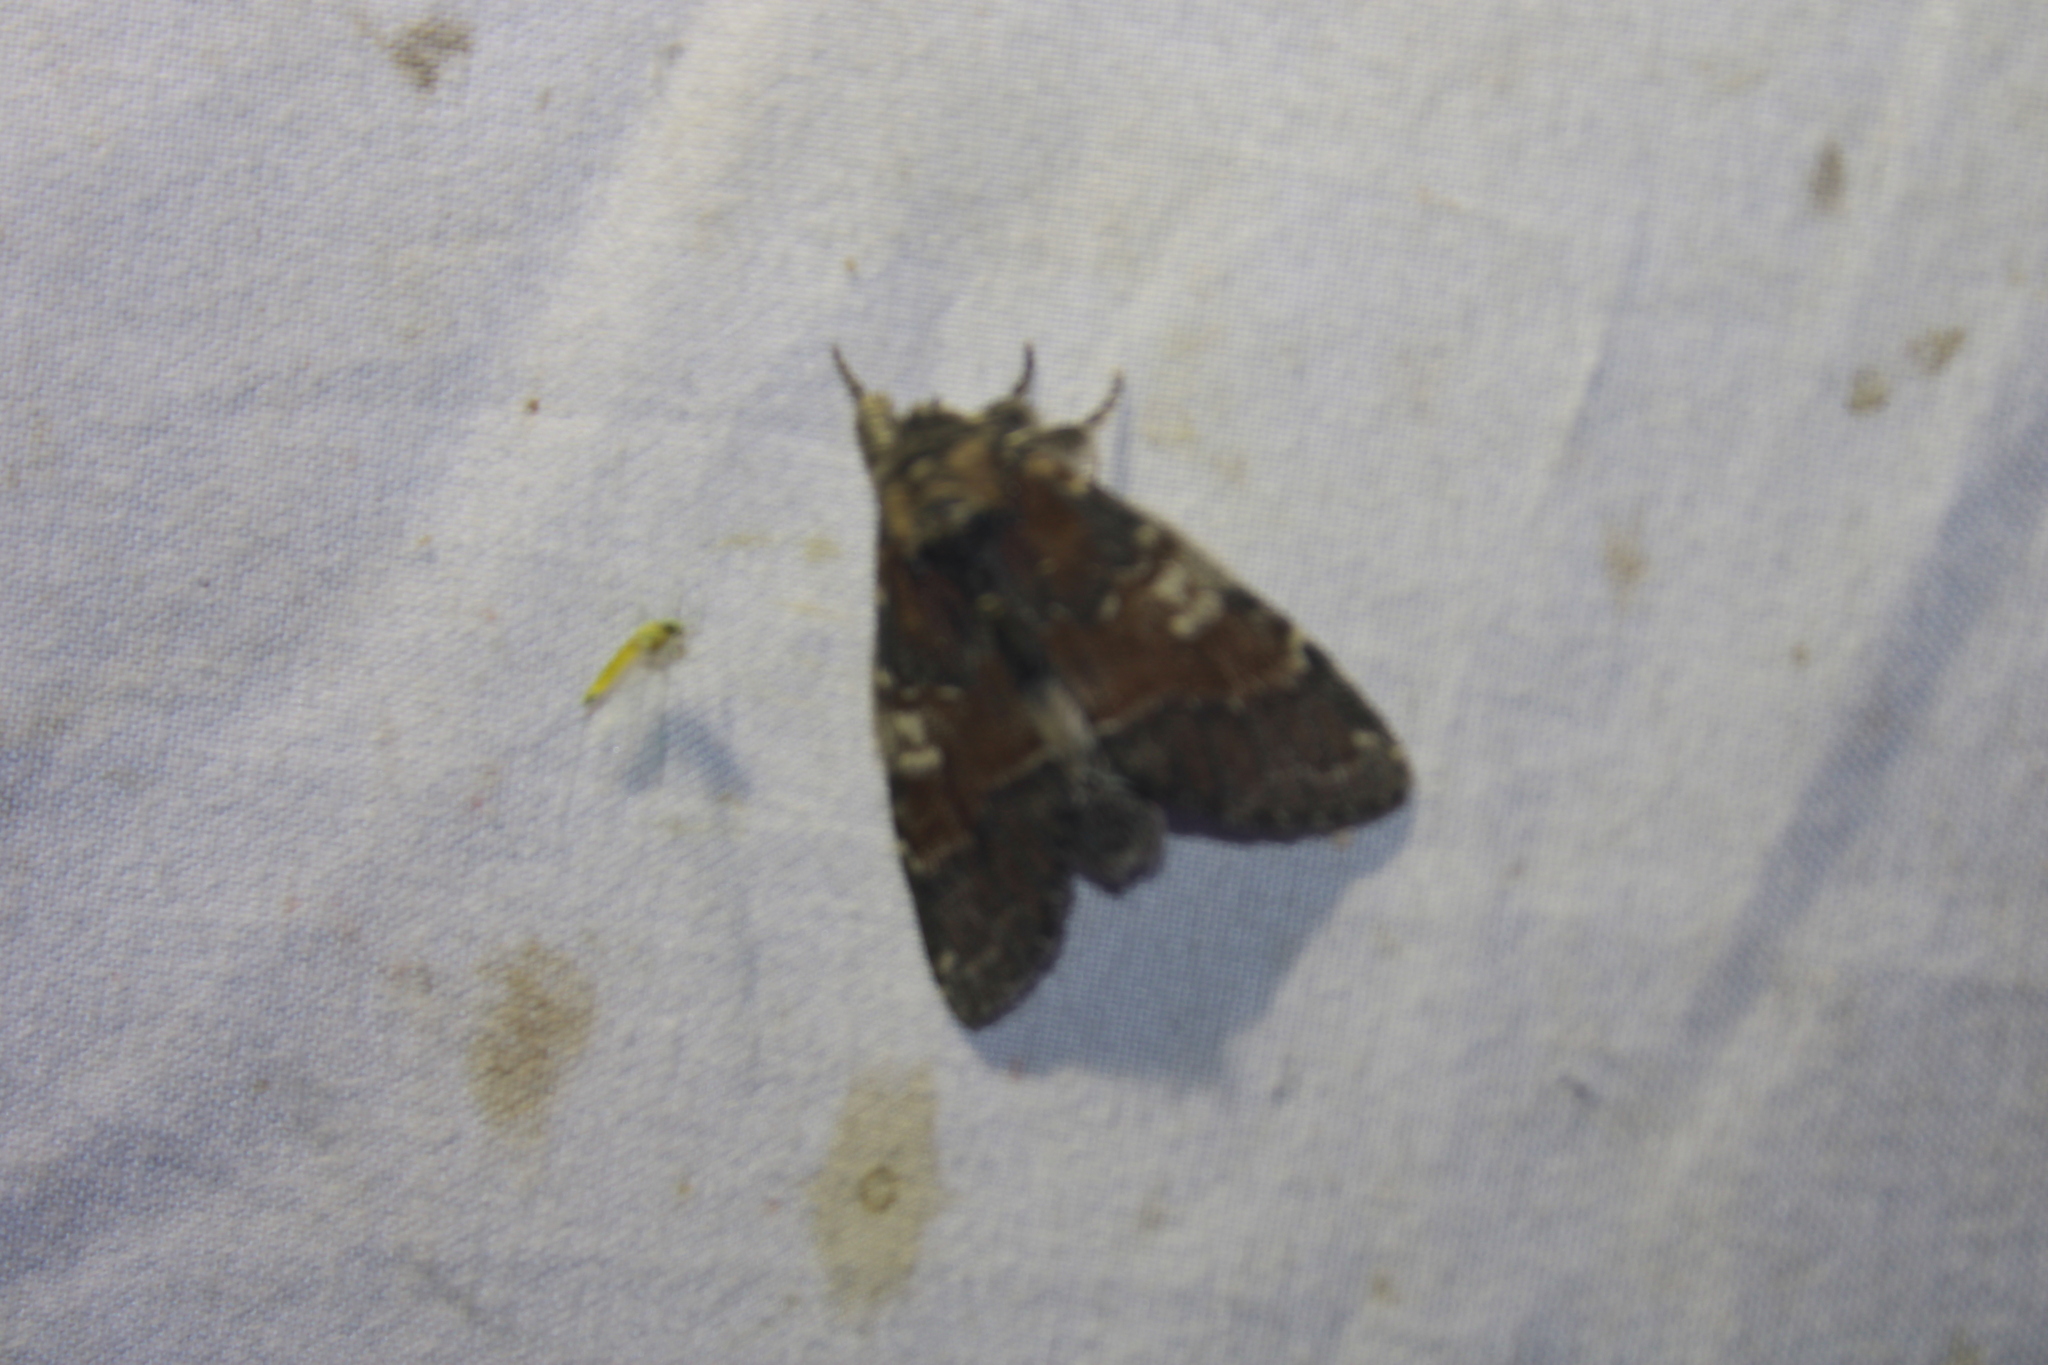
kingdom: Animalia
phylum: Arthropoda
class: Insecta
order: Lepidoptera
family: Notodontidae
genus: Peridea
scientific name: Peridea ferruginea
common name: Chocolate prominent
